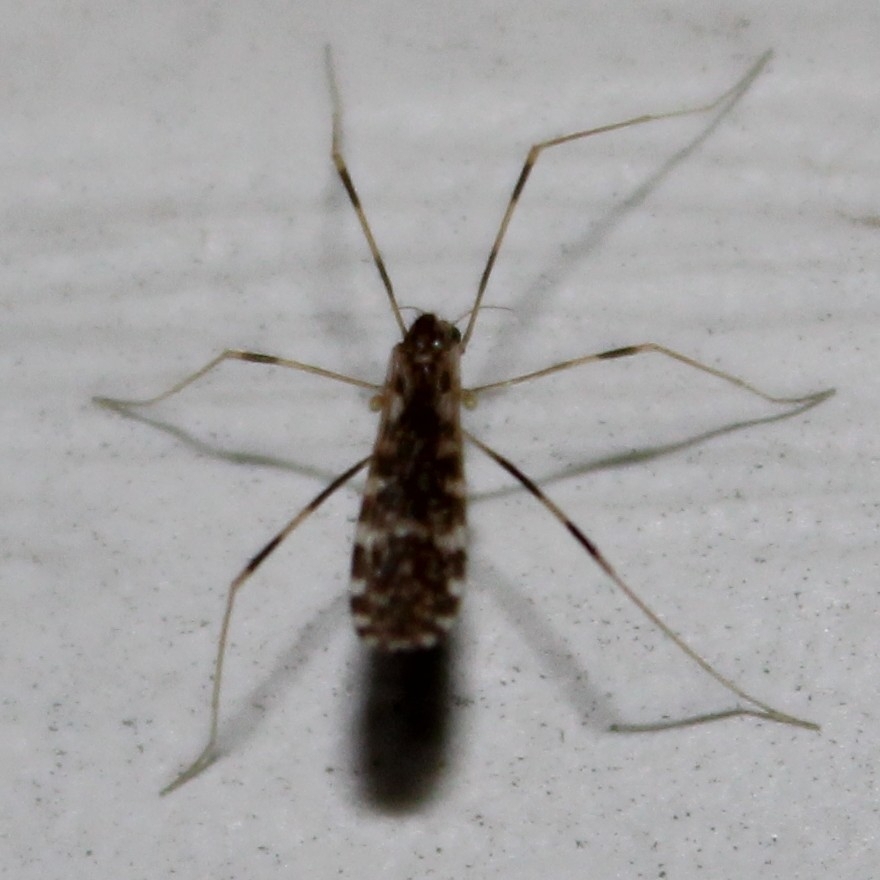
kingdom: Animalia
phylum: Arthropoda
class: Insecta
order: Diptera
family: Limoniidae
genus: Erioptera
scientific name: Erioptera caliptera
